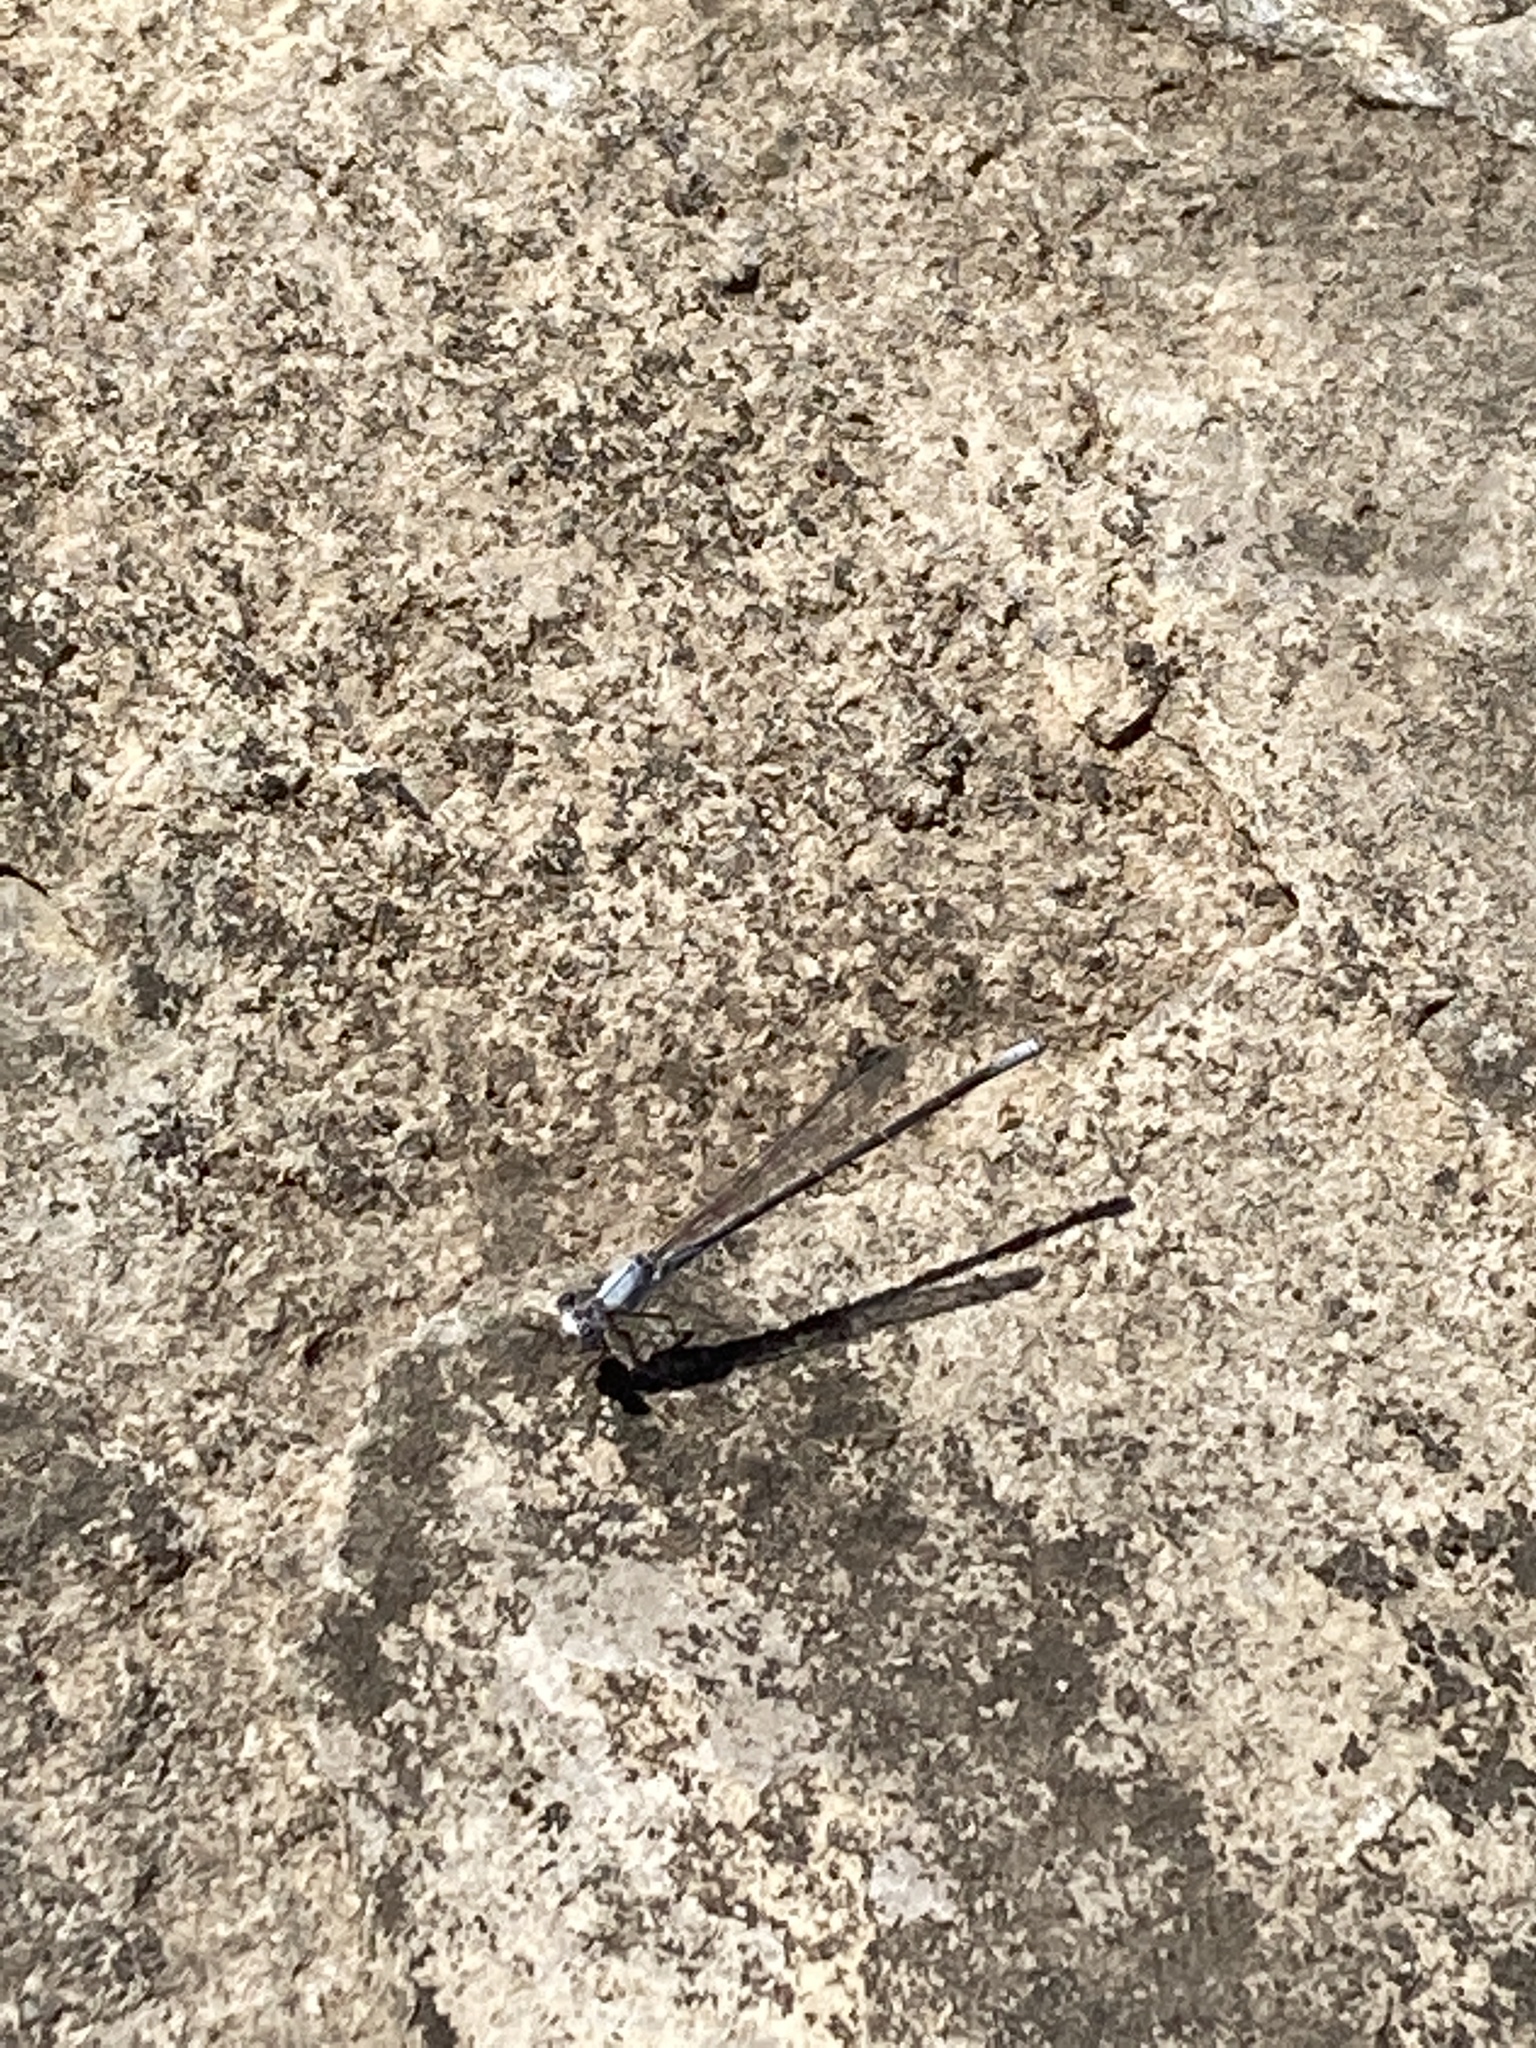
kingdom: Animalia
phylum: Arthropoda
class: Insecta
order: Odonata
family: Coenagrionidae
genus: Argia
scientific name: Argia moesta
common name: Powdered dancer
